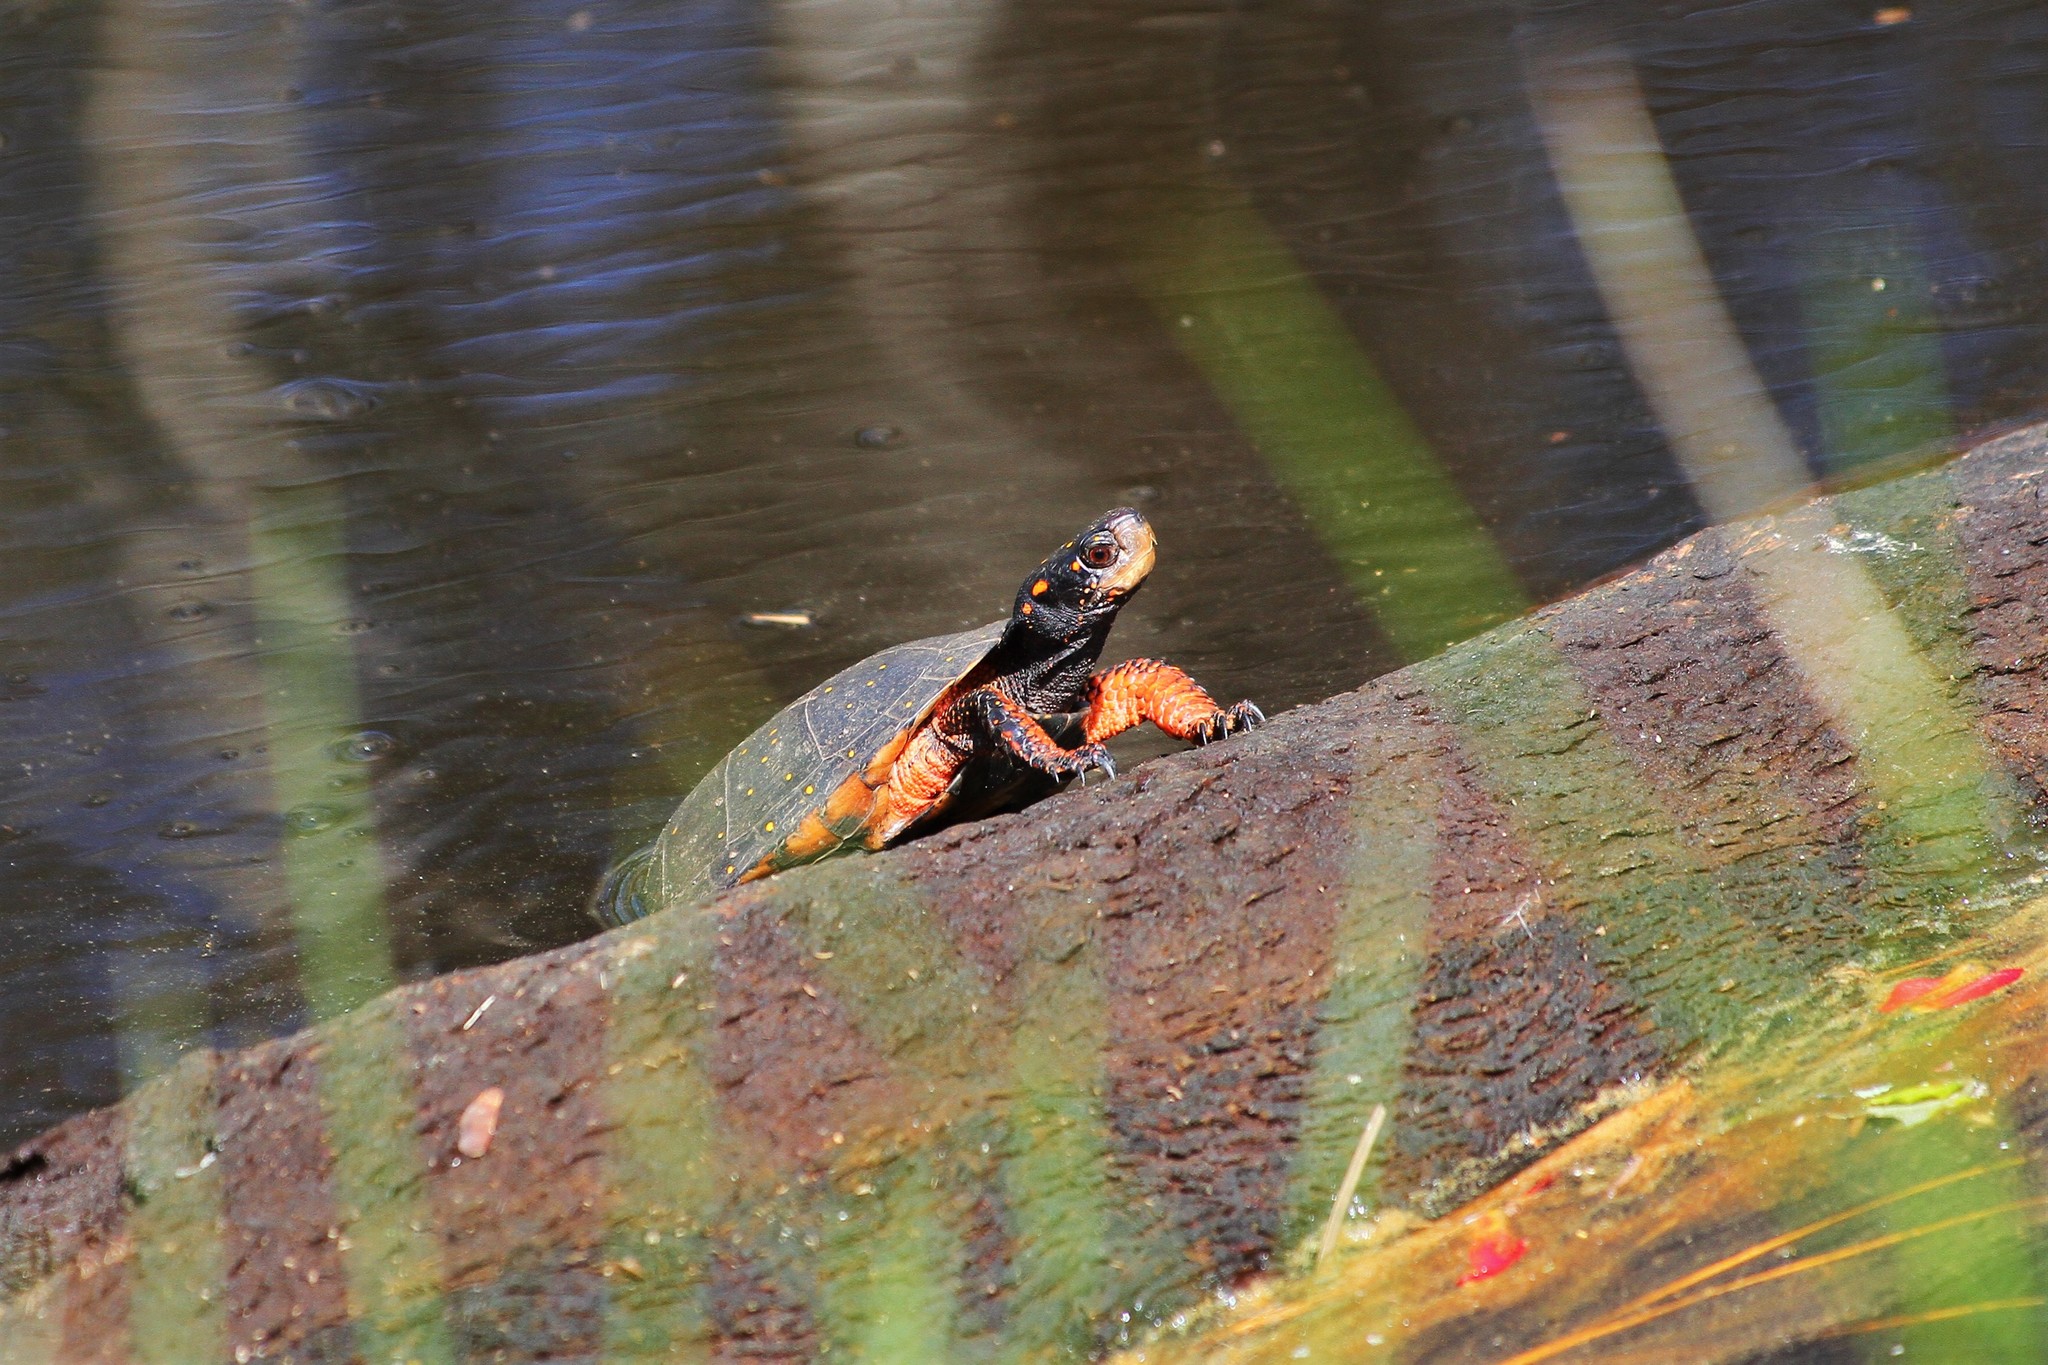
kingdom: Animalia
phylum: Chordata
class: Testudines
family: Emydidae
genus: Clemmys
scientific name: Clemmys guttata
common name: Spotted turtle
